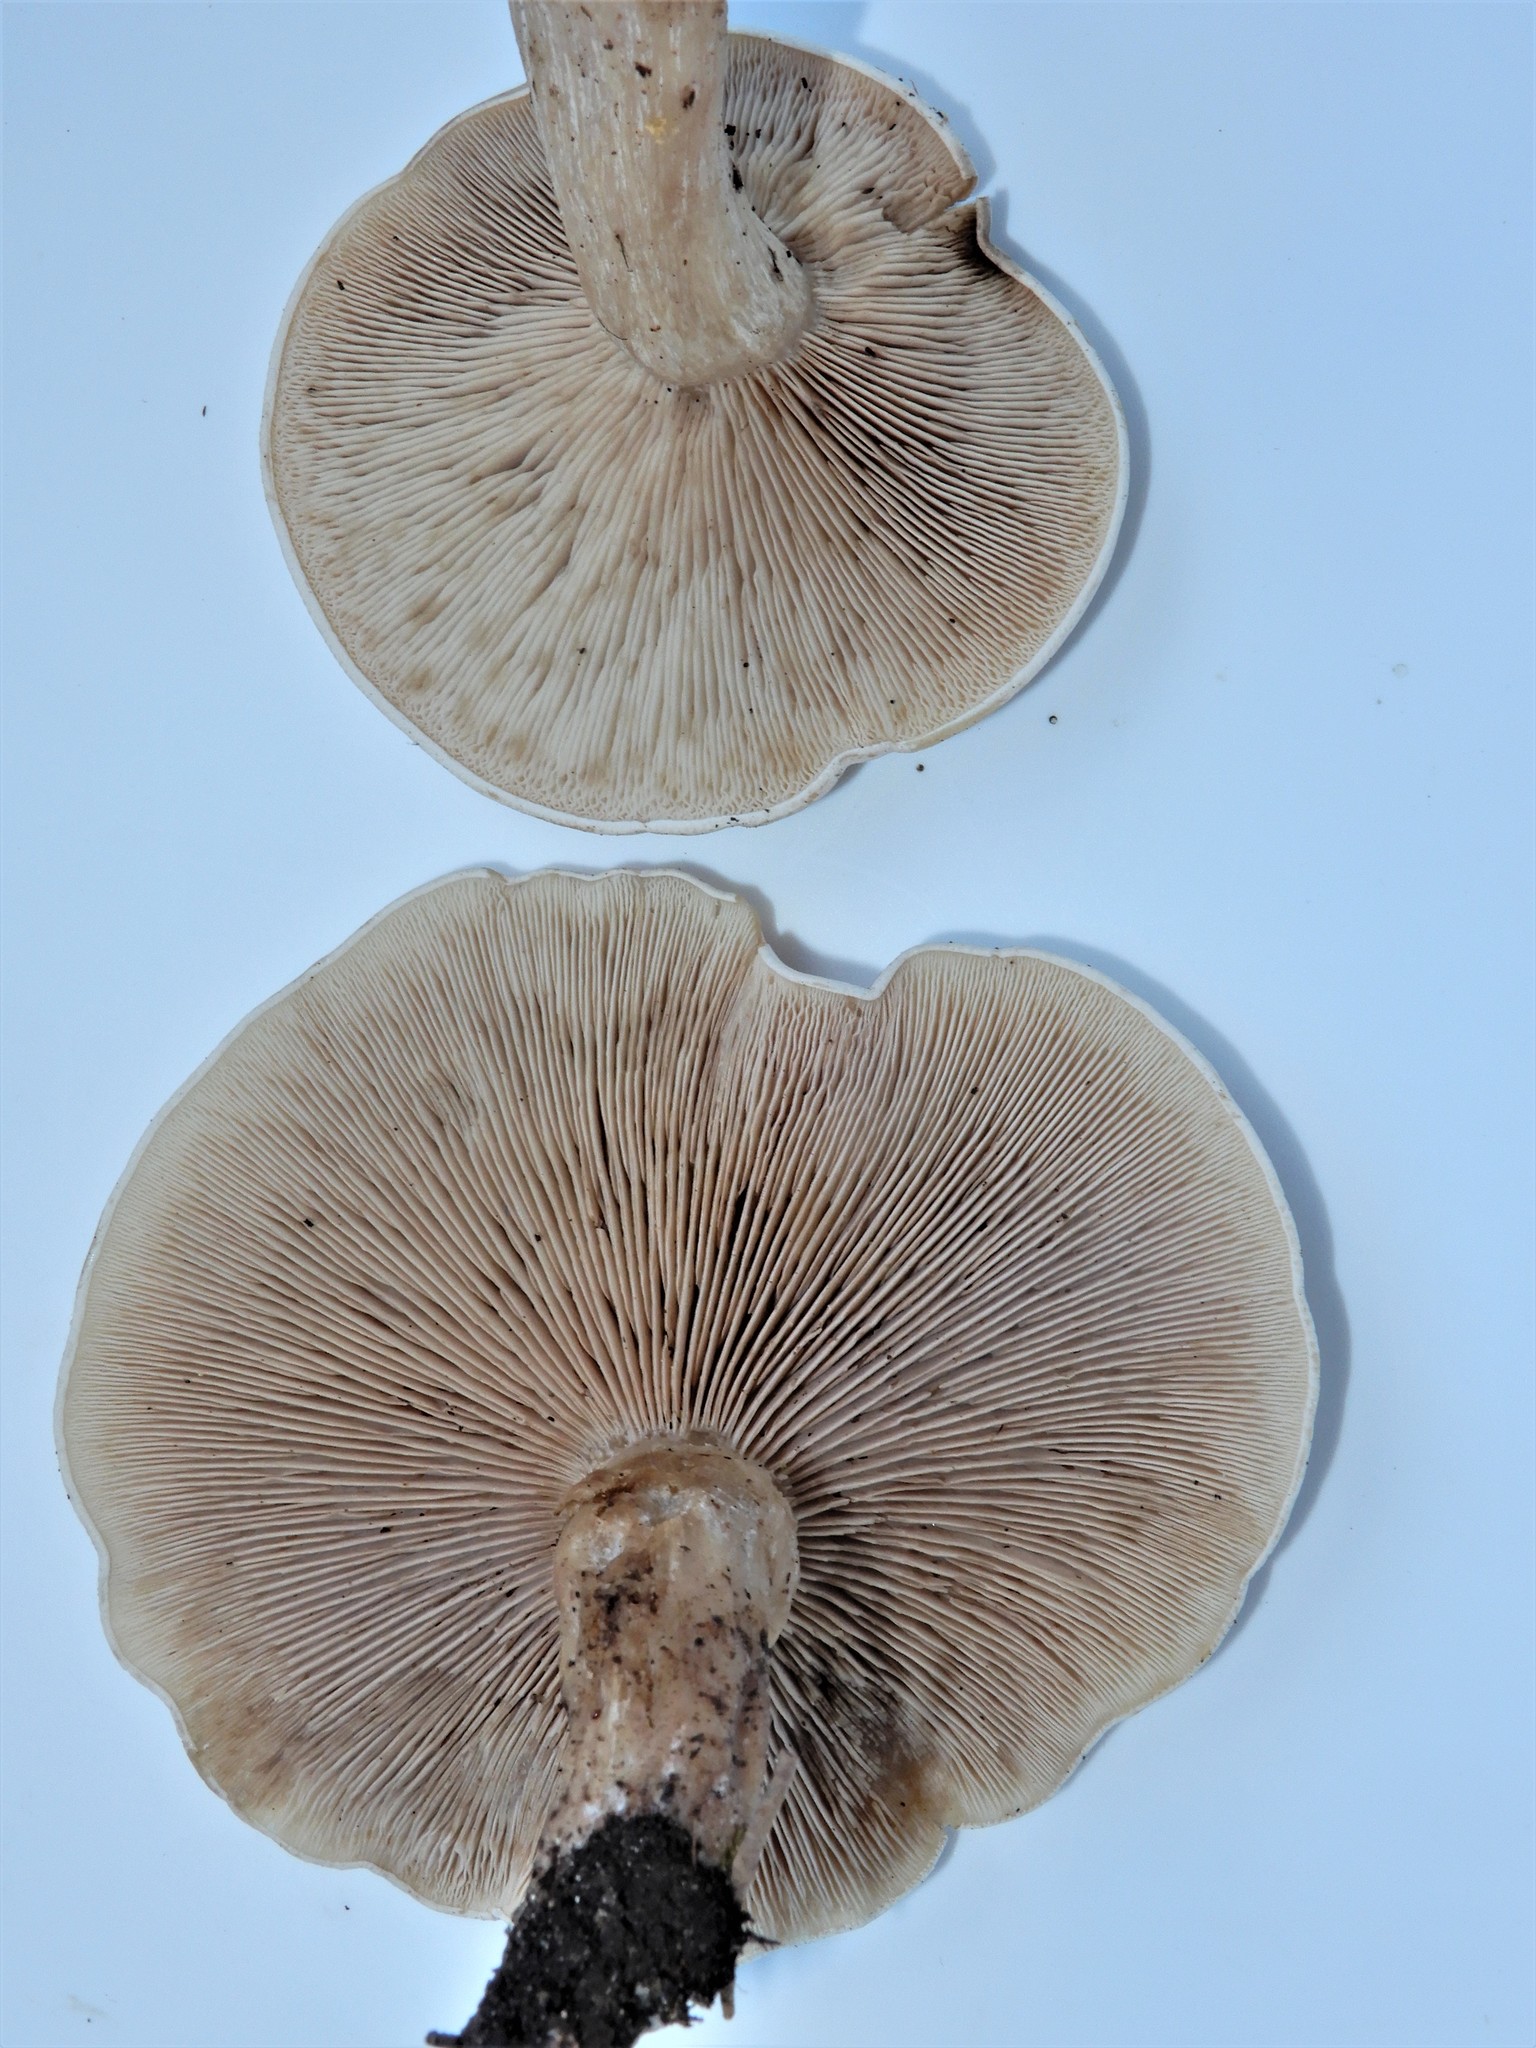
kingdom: Fungi
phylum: Basidiomycota
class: Agaricomycetes
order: Agaricales
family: Tricholomataceae
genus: Lepista
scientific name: Lepista luscina
